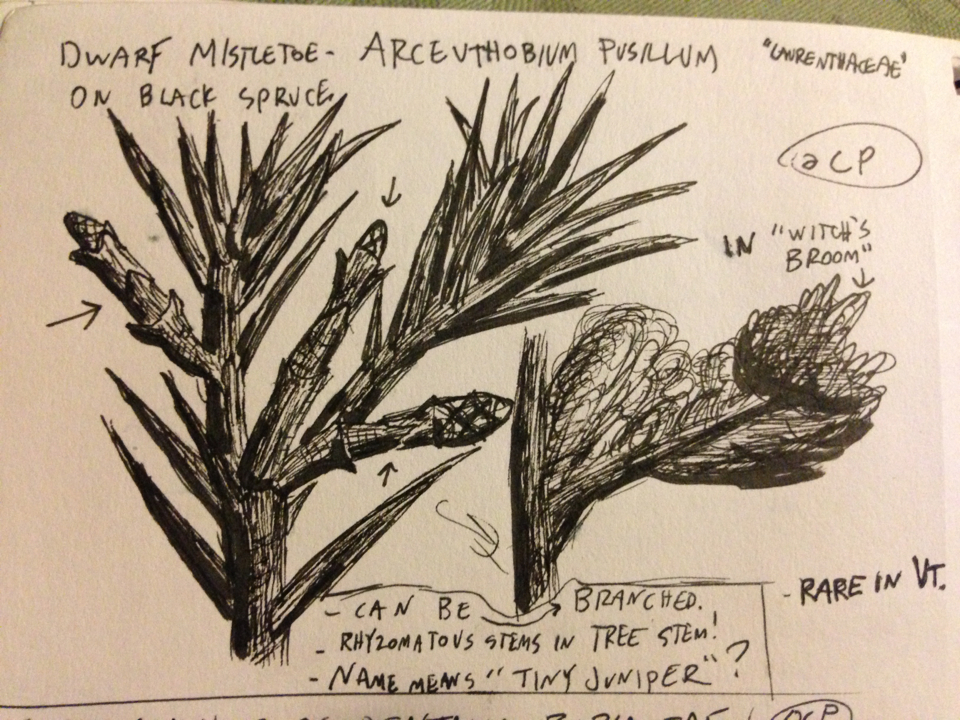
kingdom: Plantae
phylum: Tracheophyta
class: Magnoliopsida
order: Santalales
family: Viscaceae
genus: Arceuthobium
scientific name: Arceuthobium pusillum
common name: Dwarf-mistletoe
